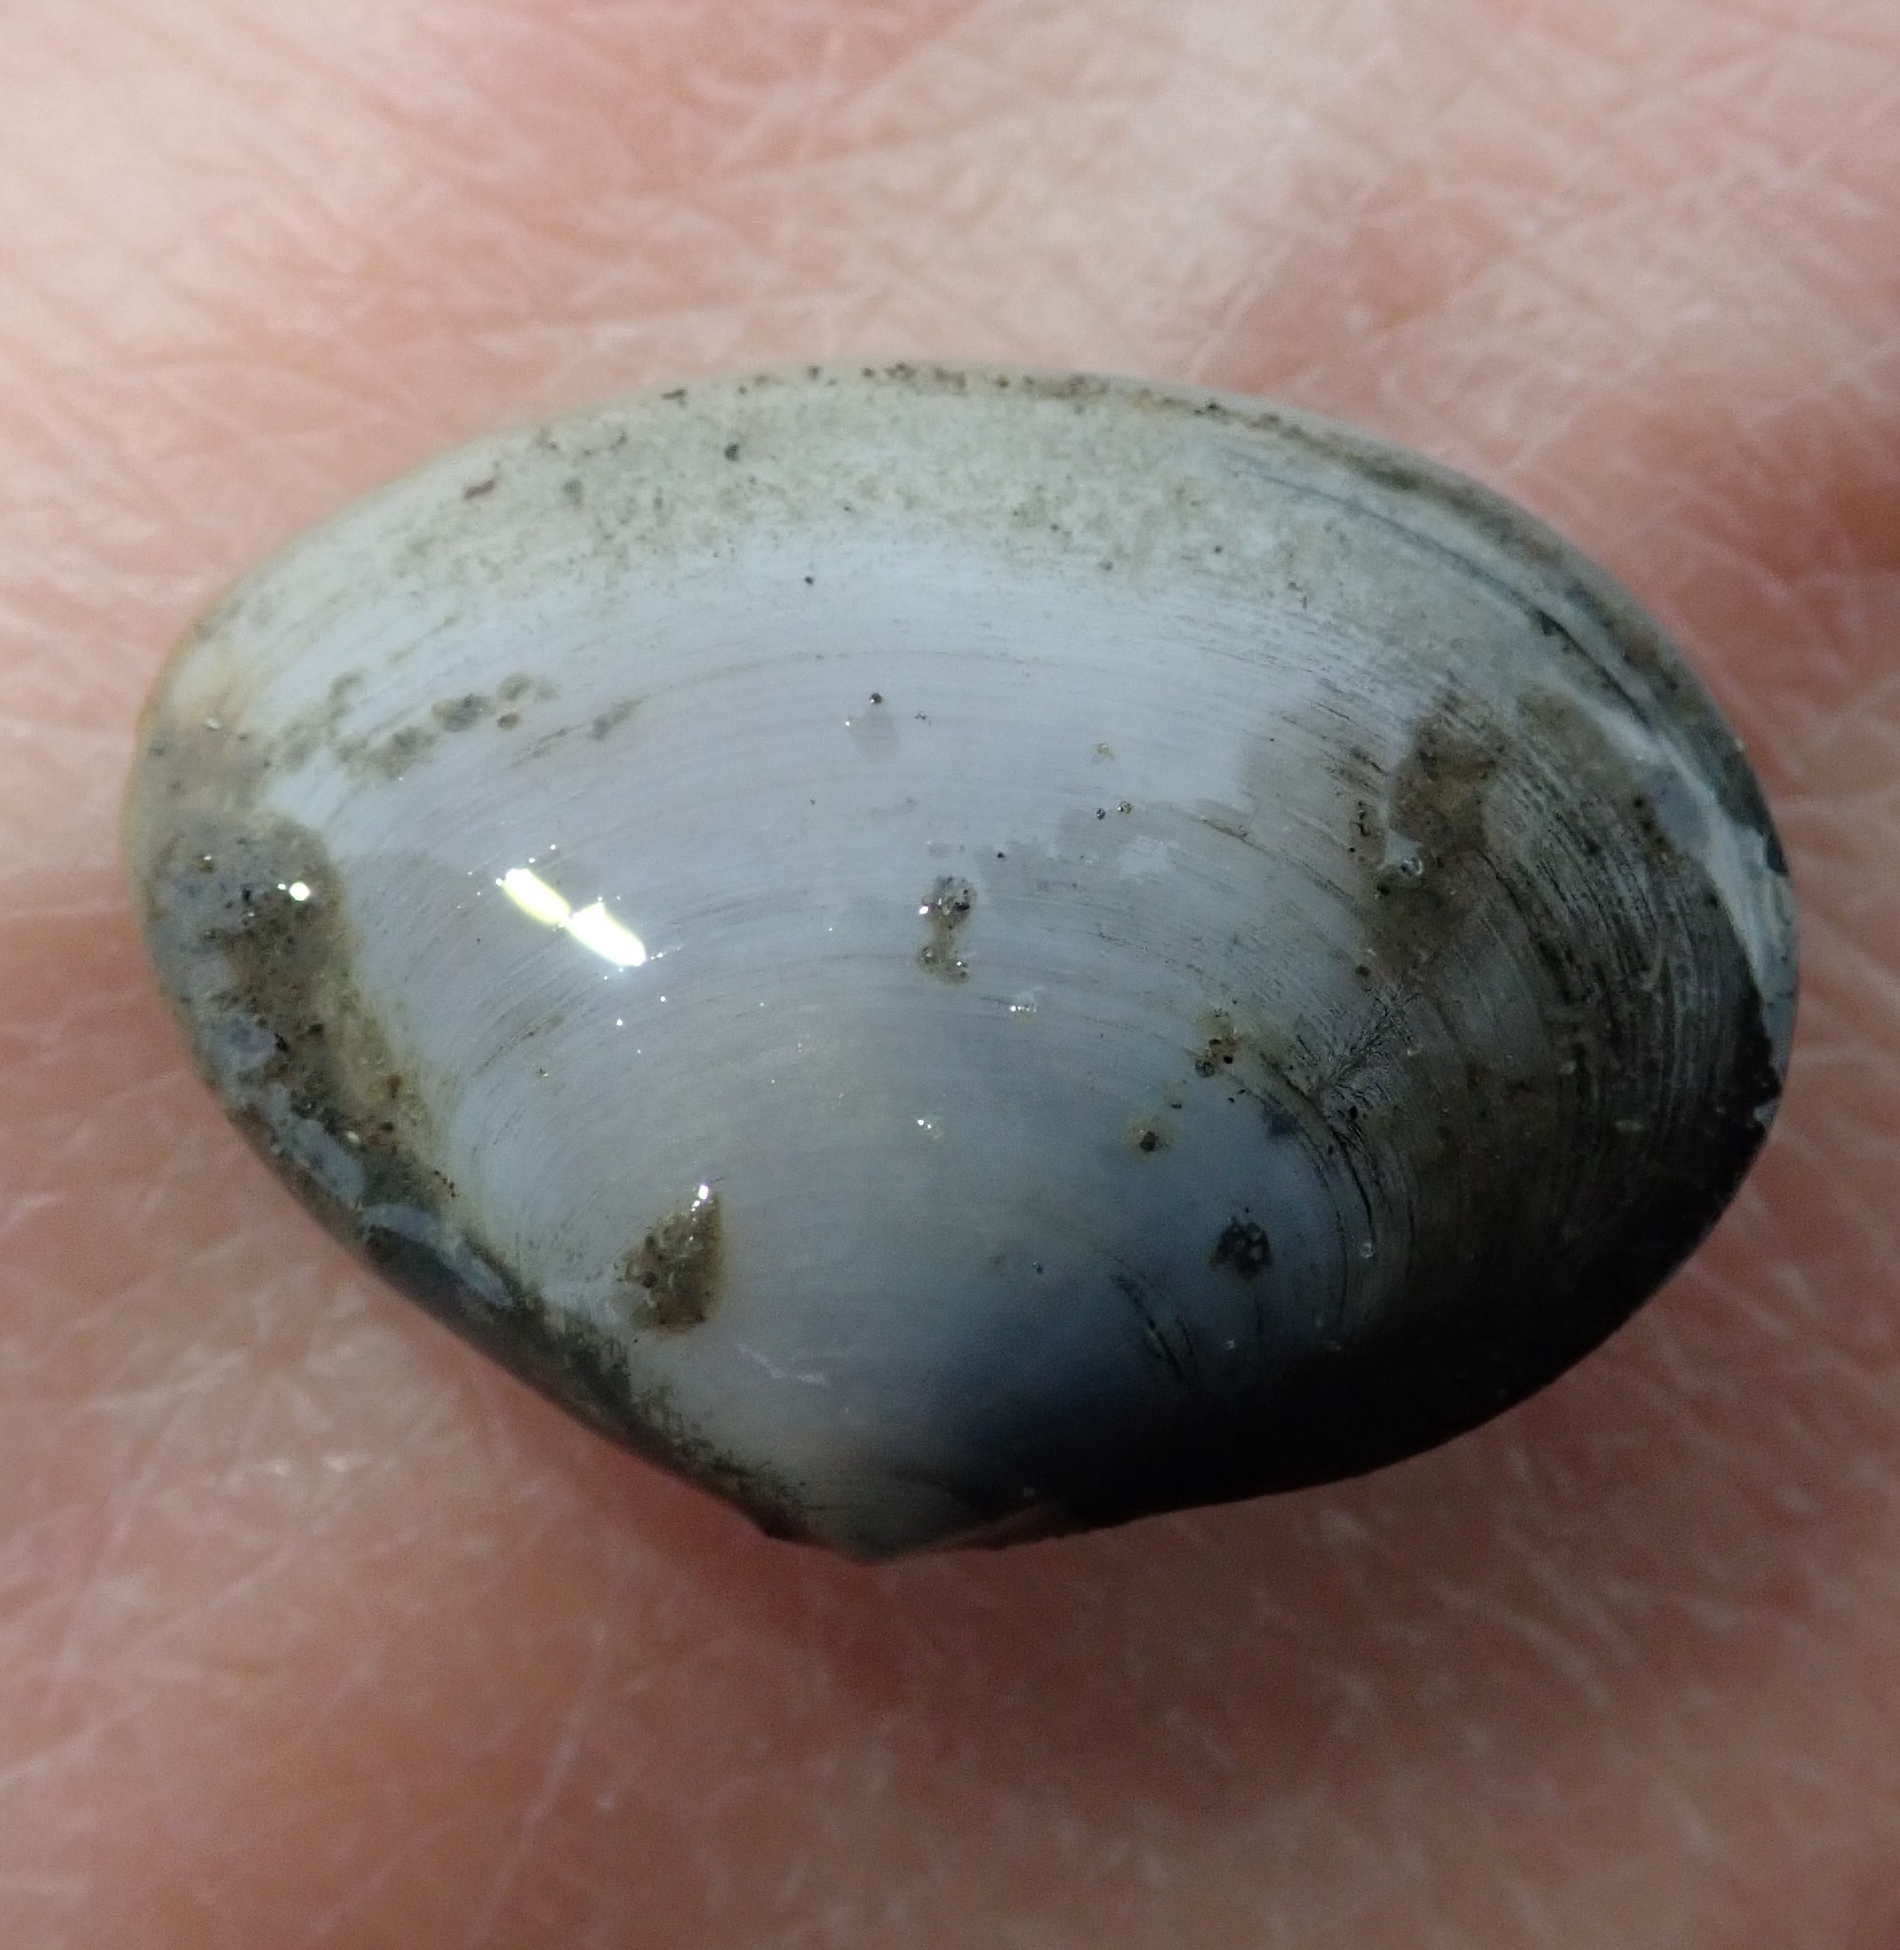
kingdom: Animalia
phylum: Mollusca
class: Bivalvia
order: Cardiida
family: Semelidae
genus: Scrobicularia
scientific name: Scrobicularia plana
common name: Peppery furrow shell
